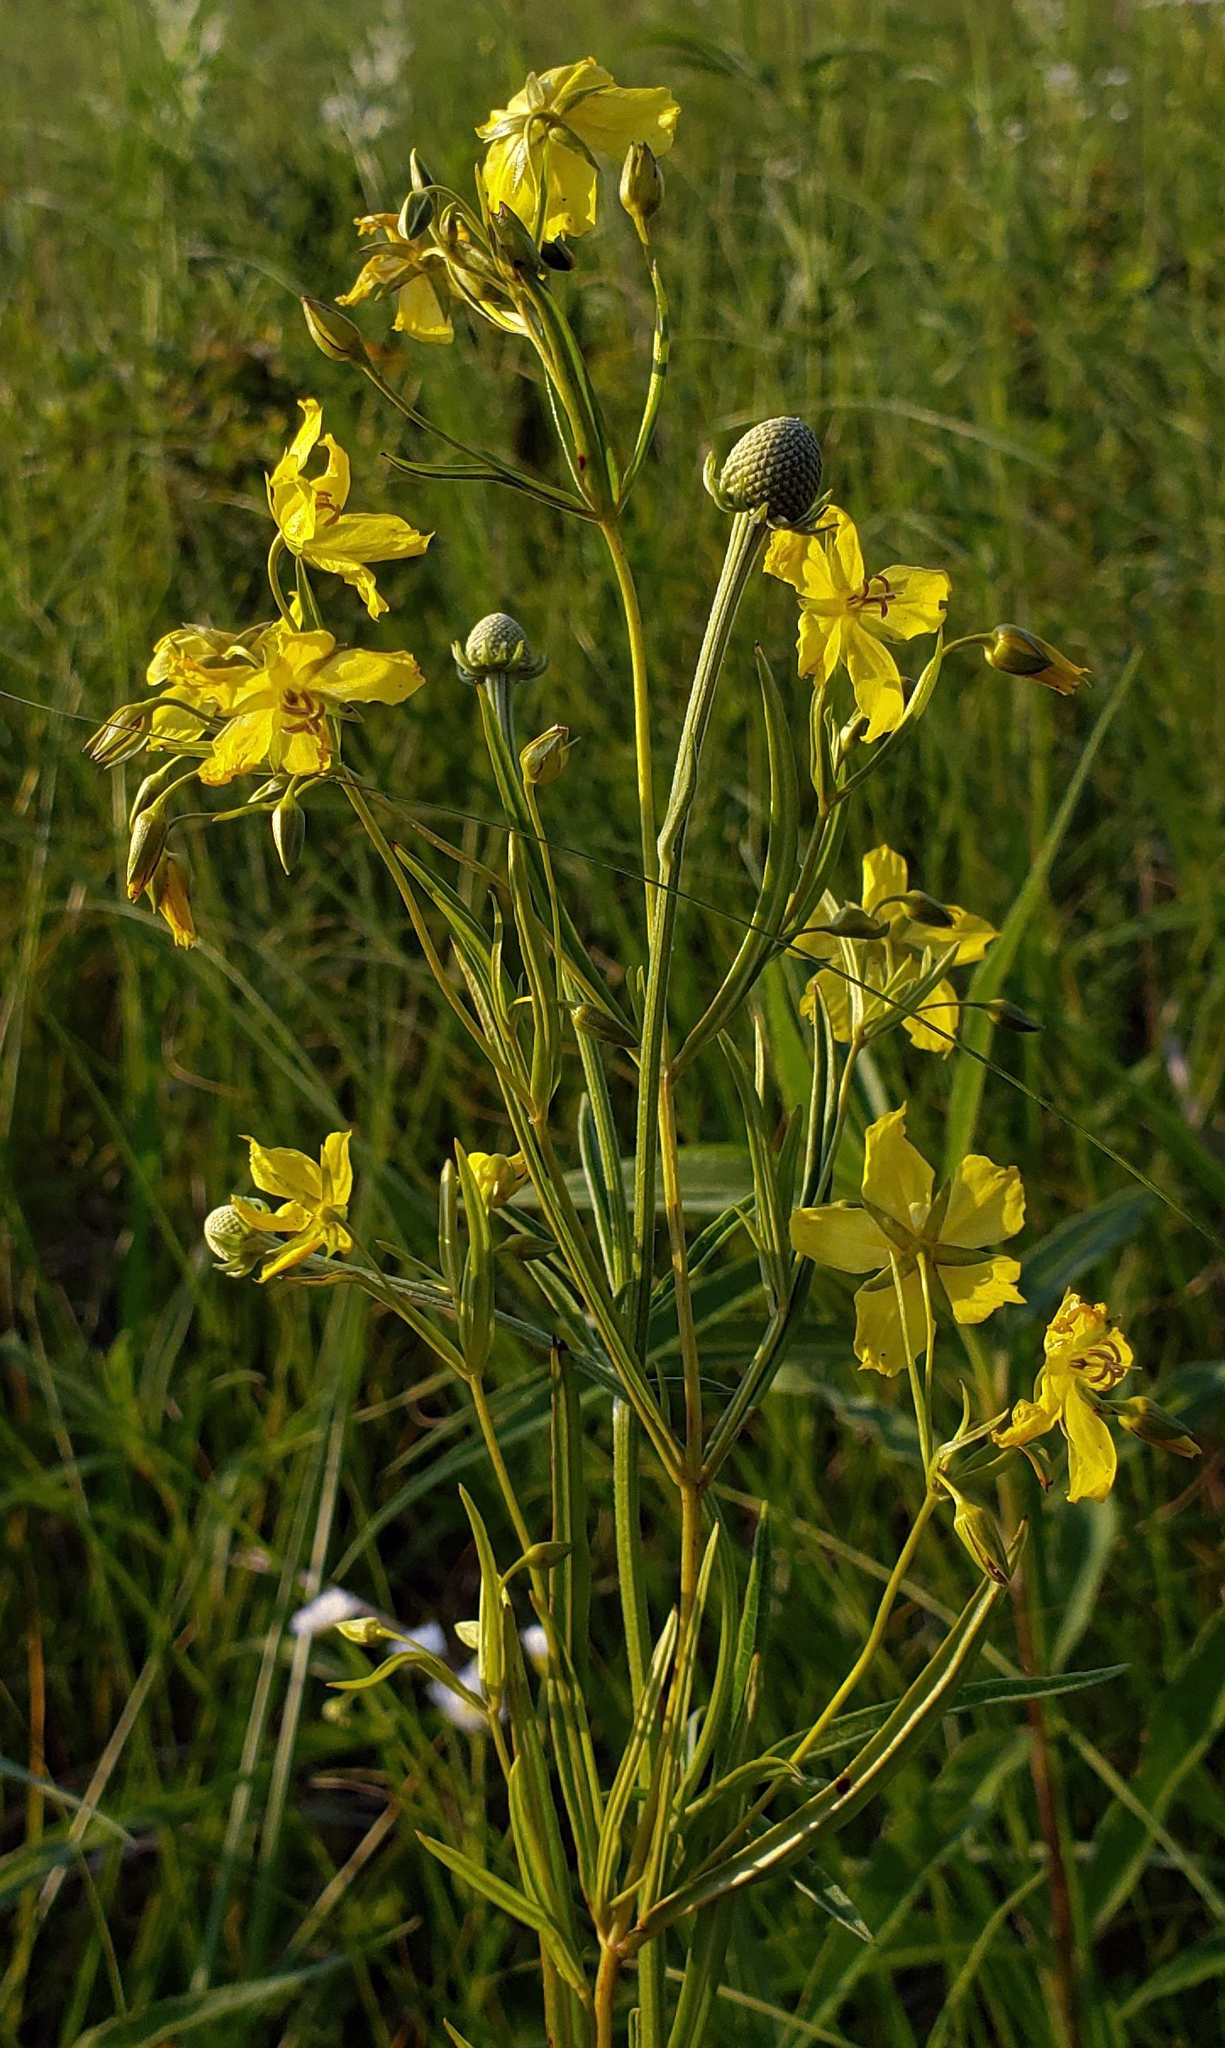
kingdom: Plantae
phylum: Tracheophyta
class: Magnoliopsida
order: Ericales
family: Primulaceae
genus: Lysimachia
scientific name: Lysimachia quadriflora
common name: Four-flowered loosestrife
